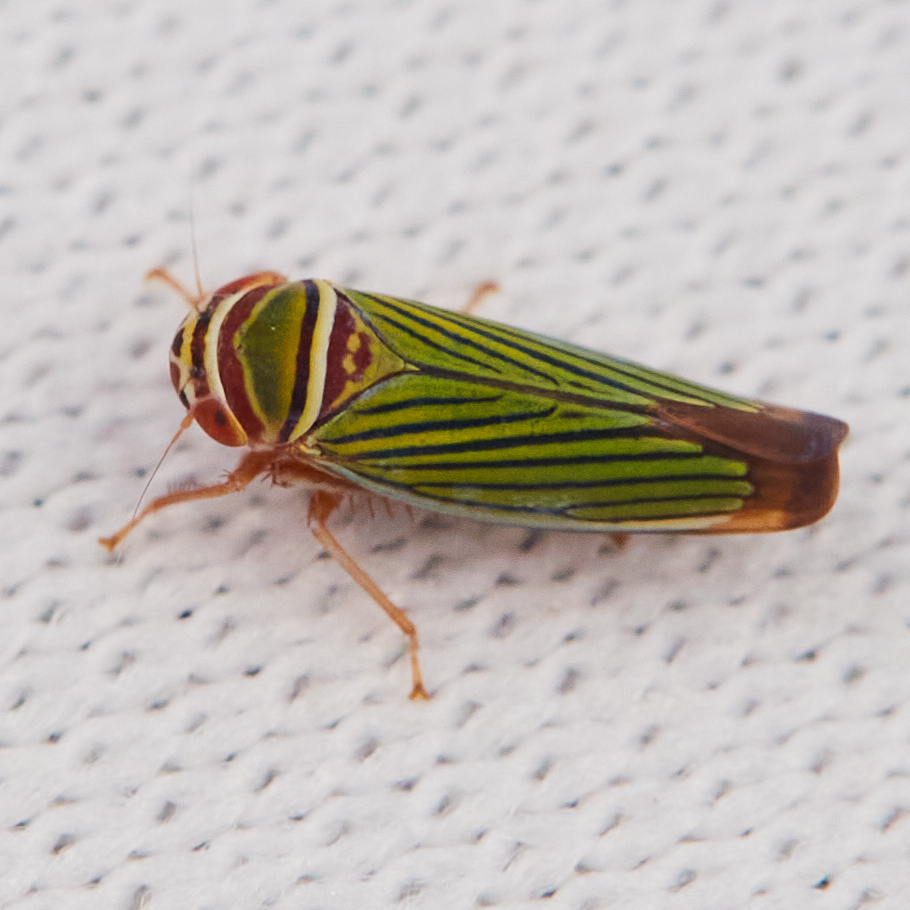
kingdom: Animalia
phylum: Arthropoda
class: Insecta
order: Hemiptera
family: Cicadellidae
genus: Tylozygus
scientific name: Tylozygus fuscolineellus
